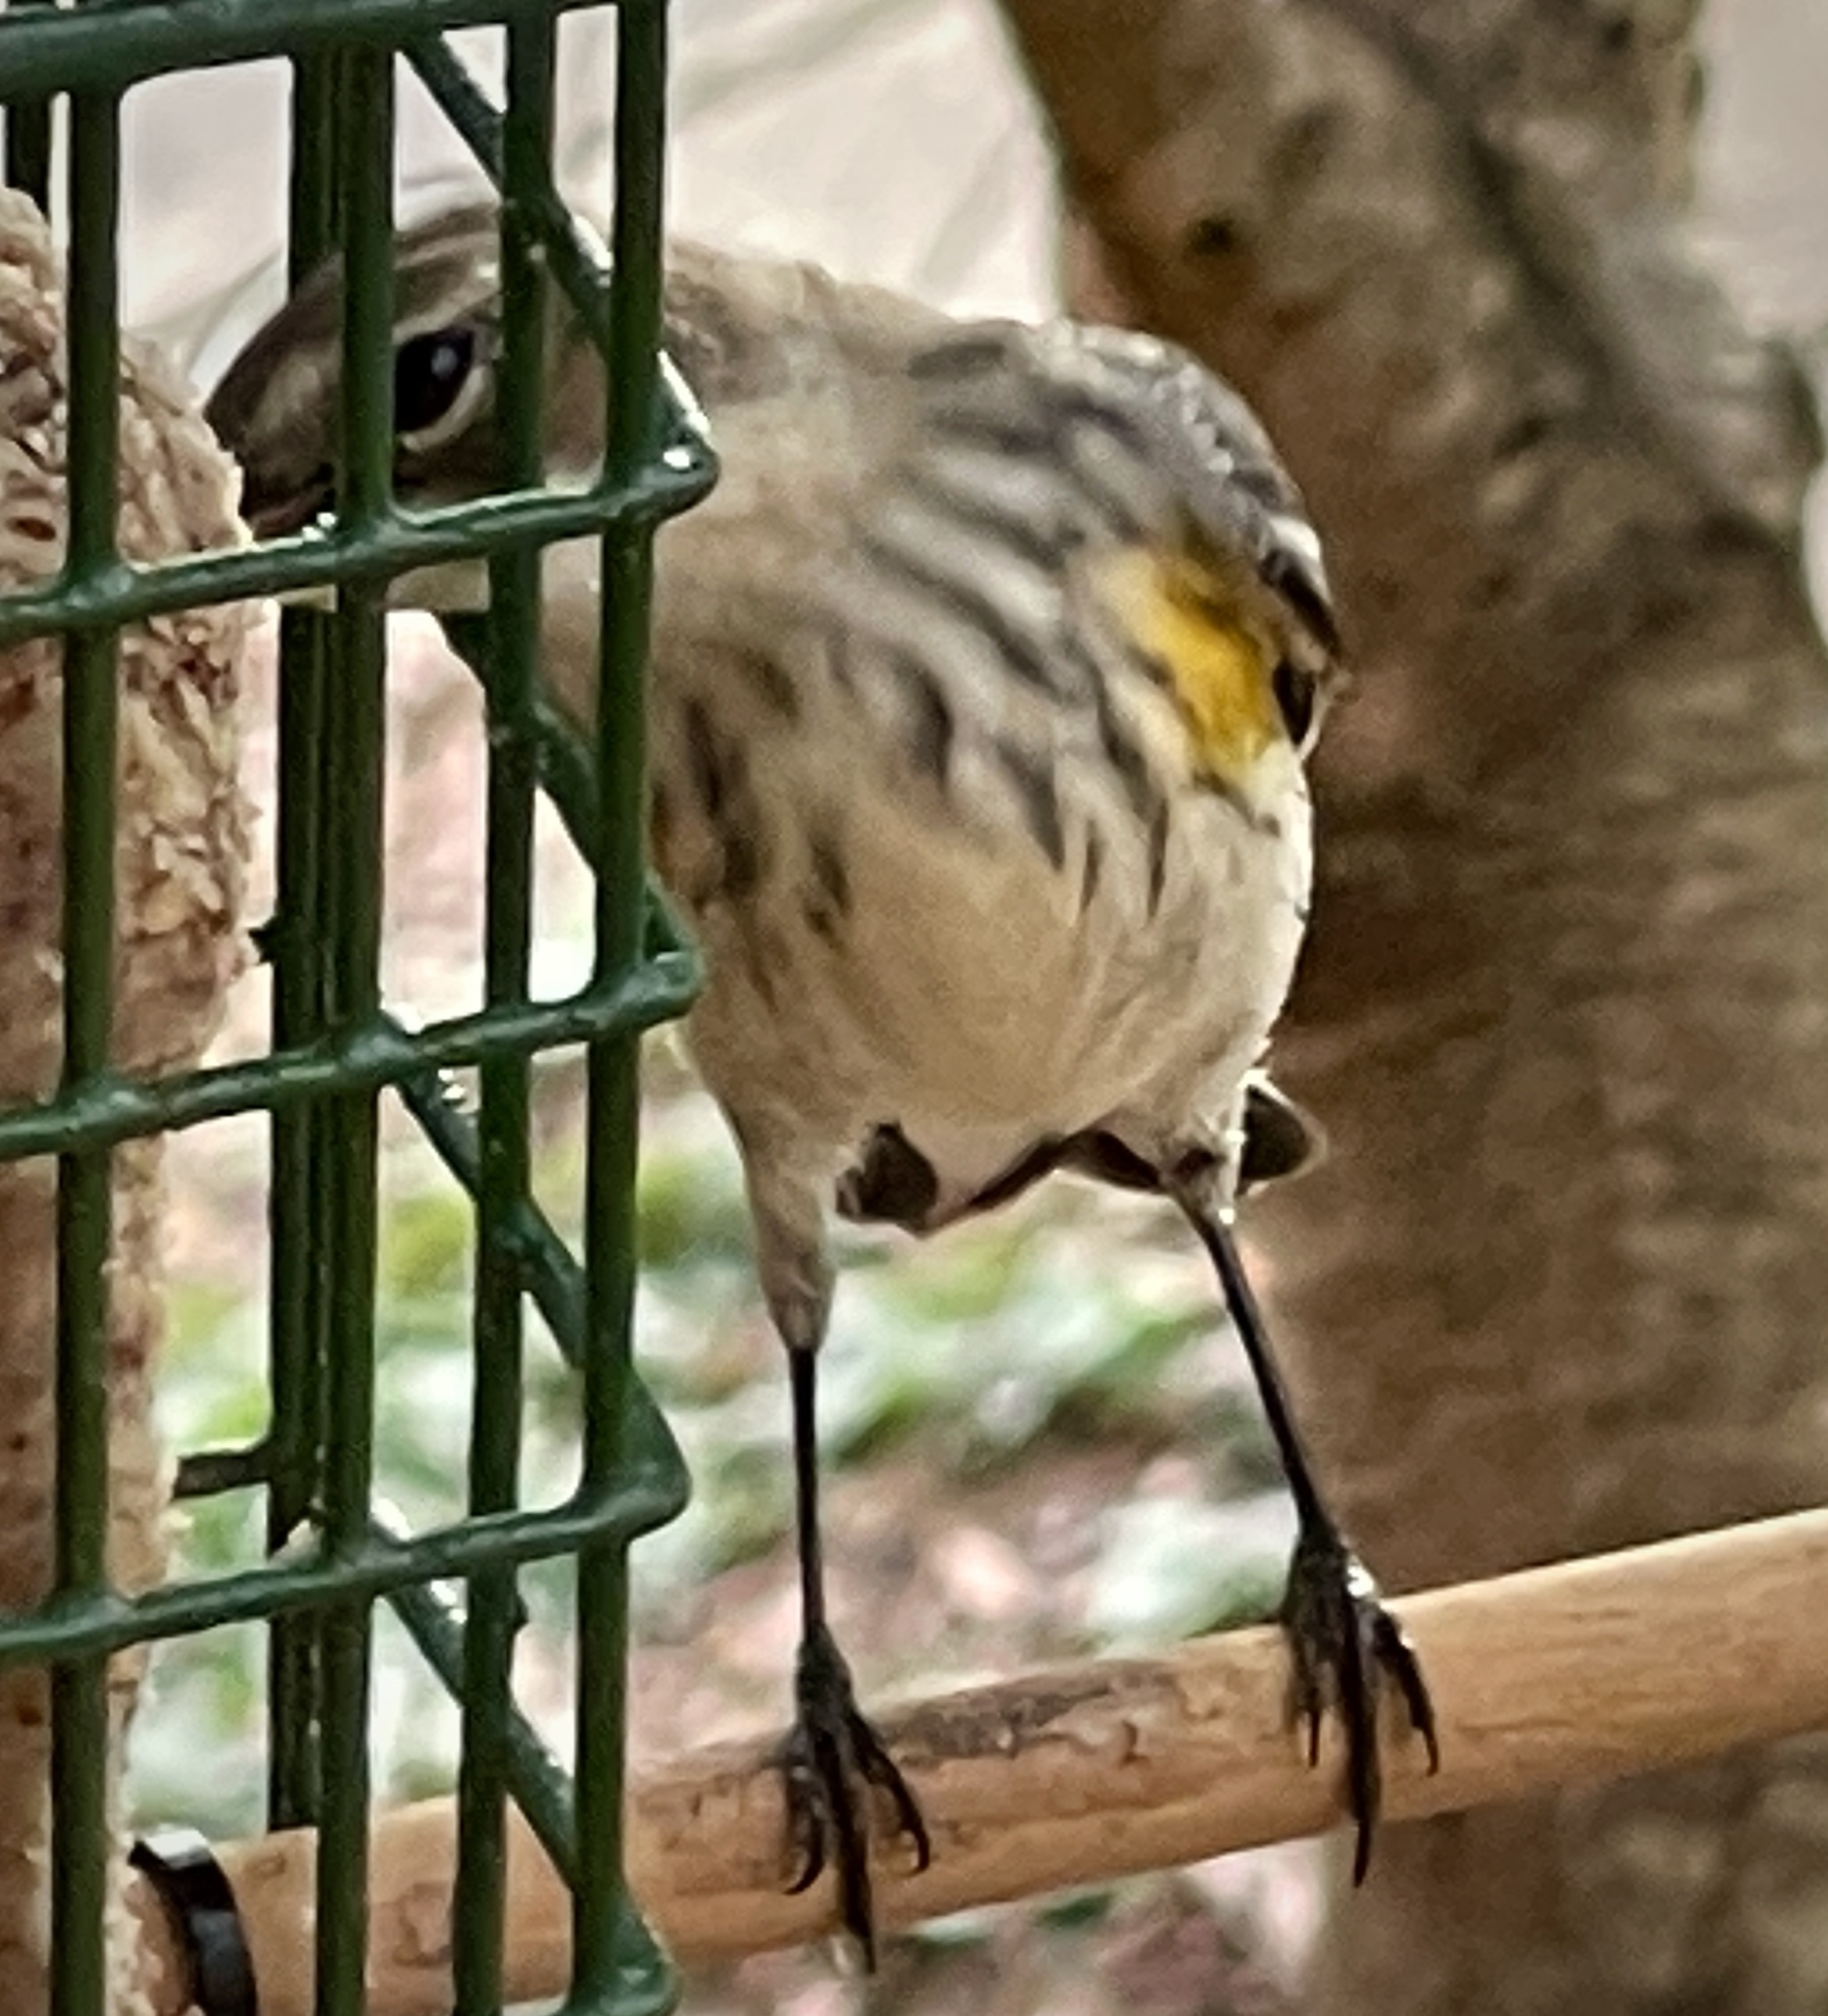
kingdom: Animalia
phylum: Chordata
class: Aves
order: Passeriformes
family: Parulidae
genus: Setophaga
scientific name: Setophaga coronata
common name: Myrtle warbler
